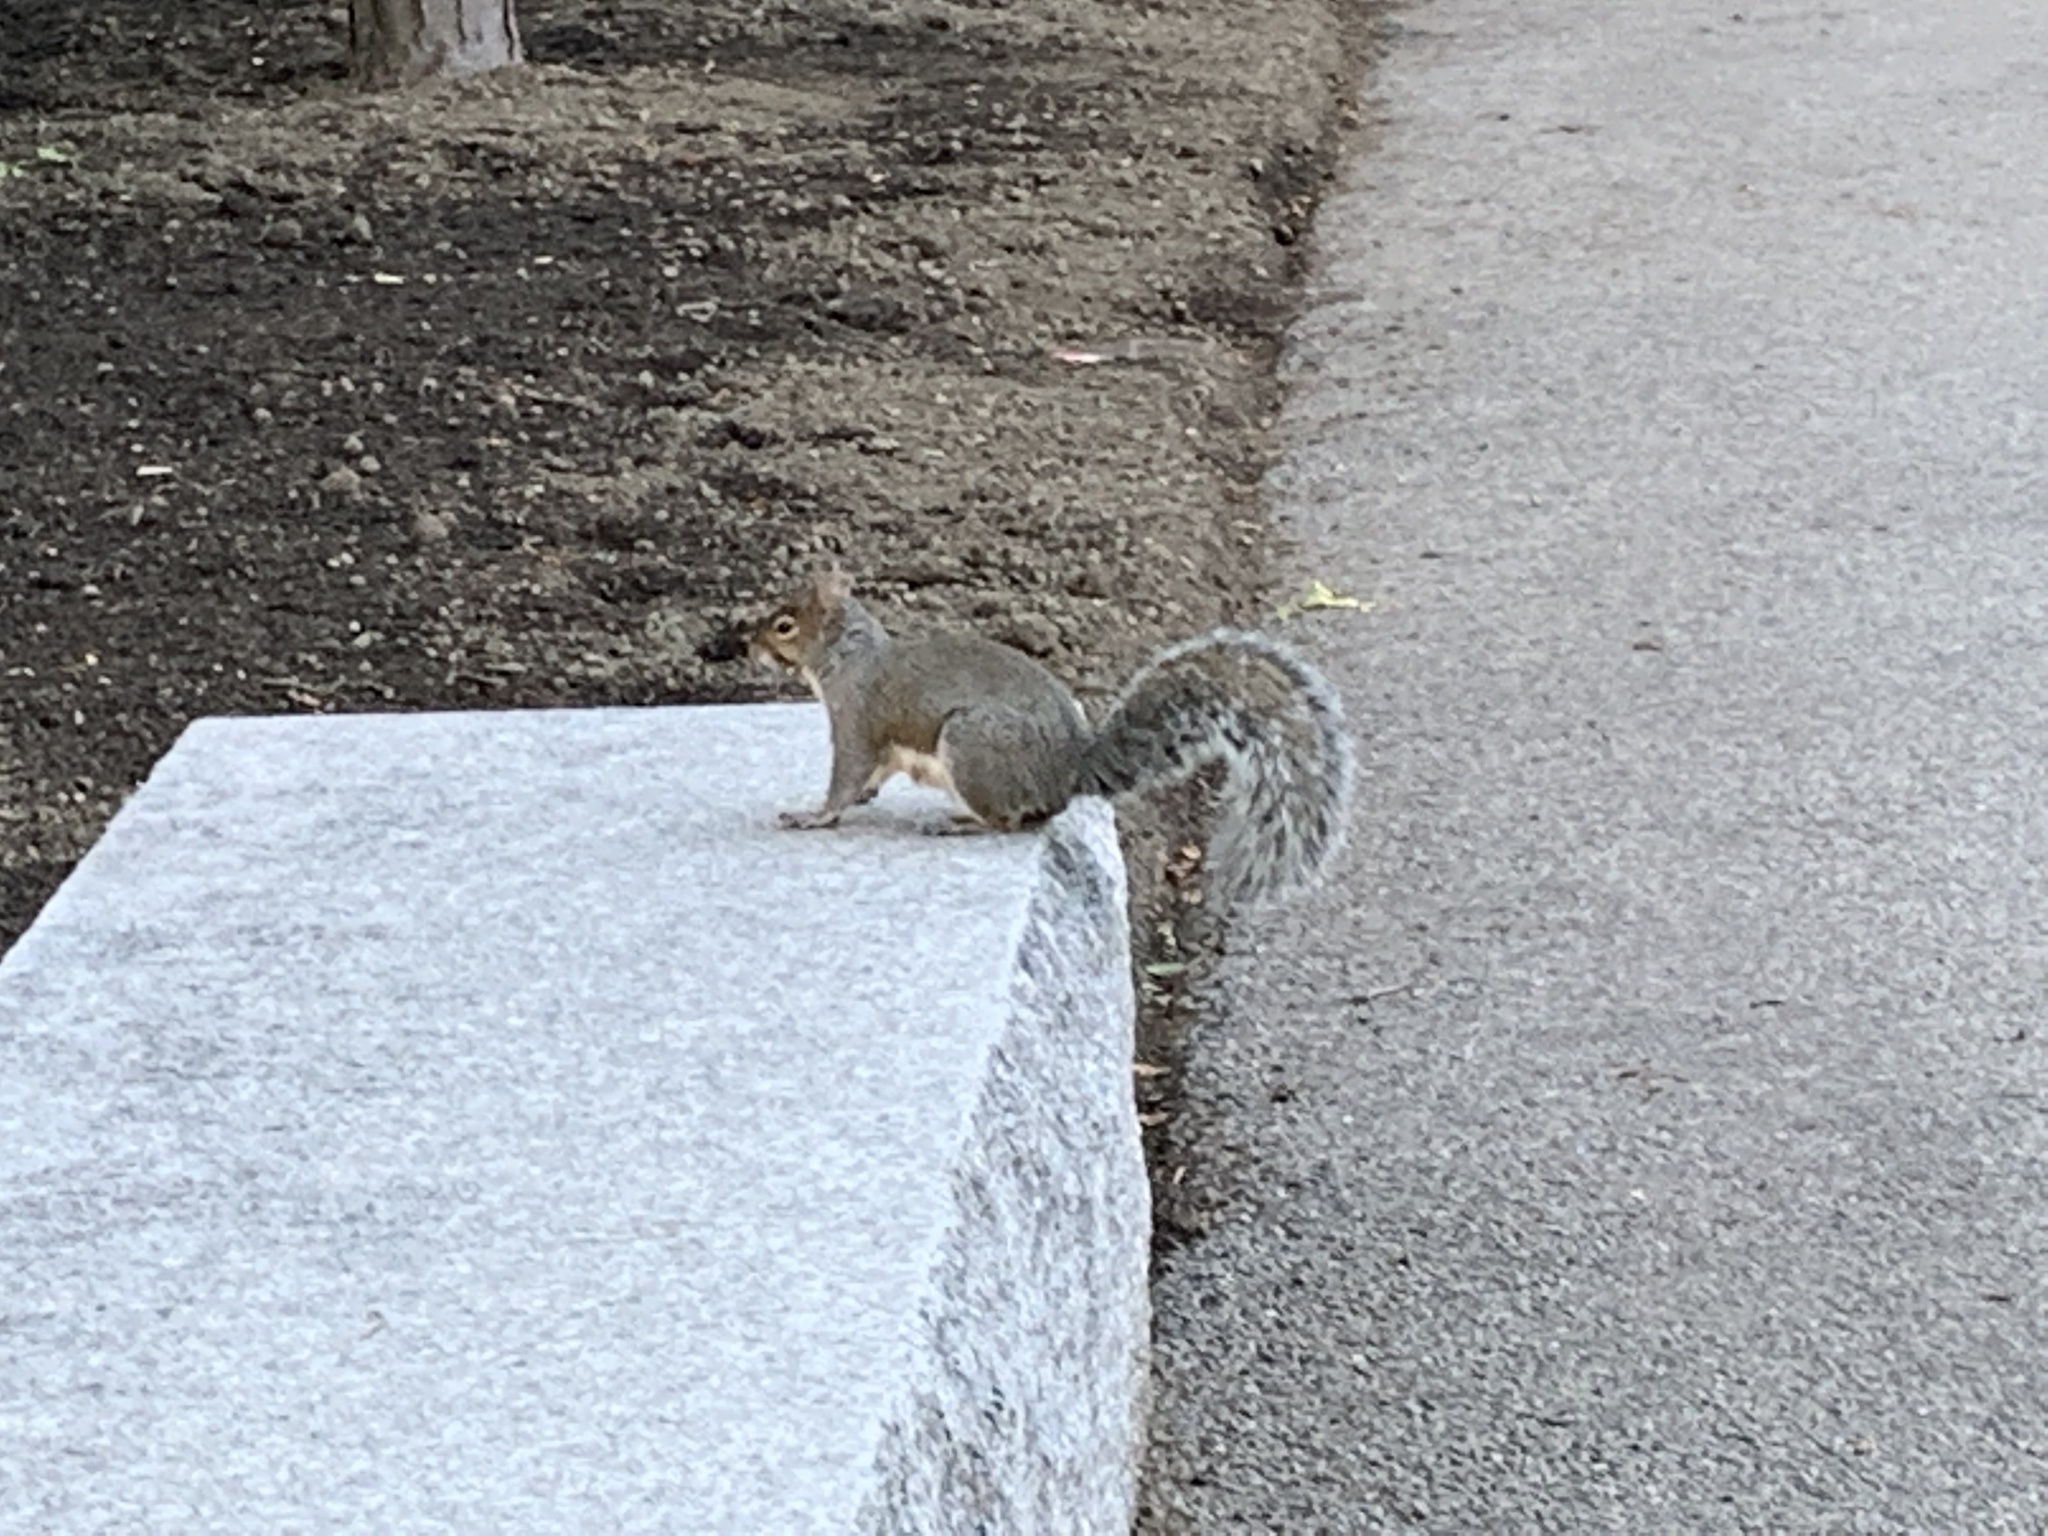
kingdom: Animalia
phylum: Chordata
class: Mammalia
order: Rodentia
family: Sciuridae
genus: Sciurus
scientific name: Sciurus carolinensis
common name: Eastern gray squirrel
